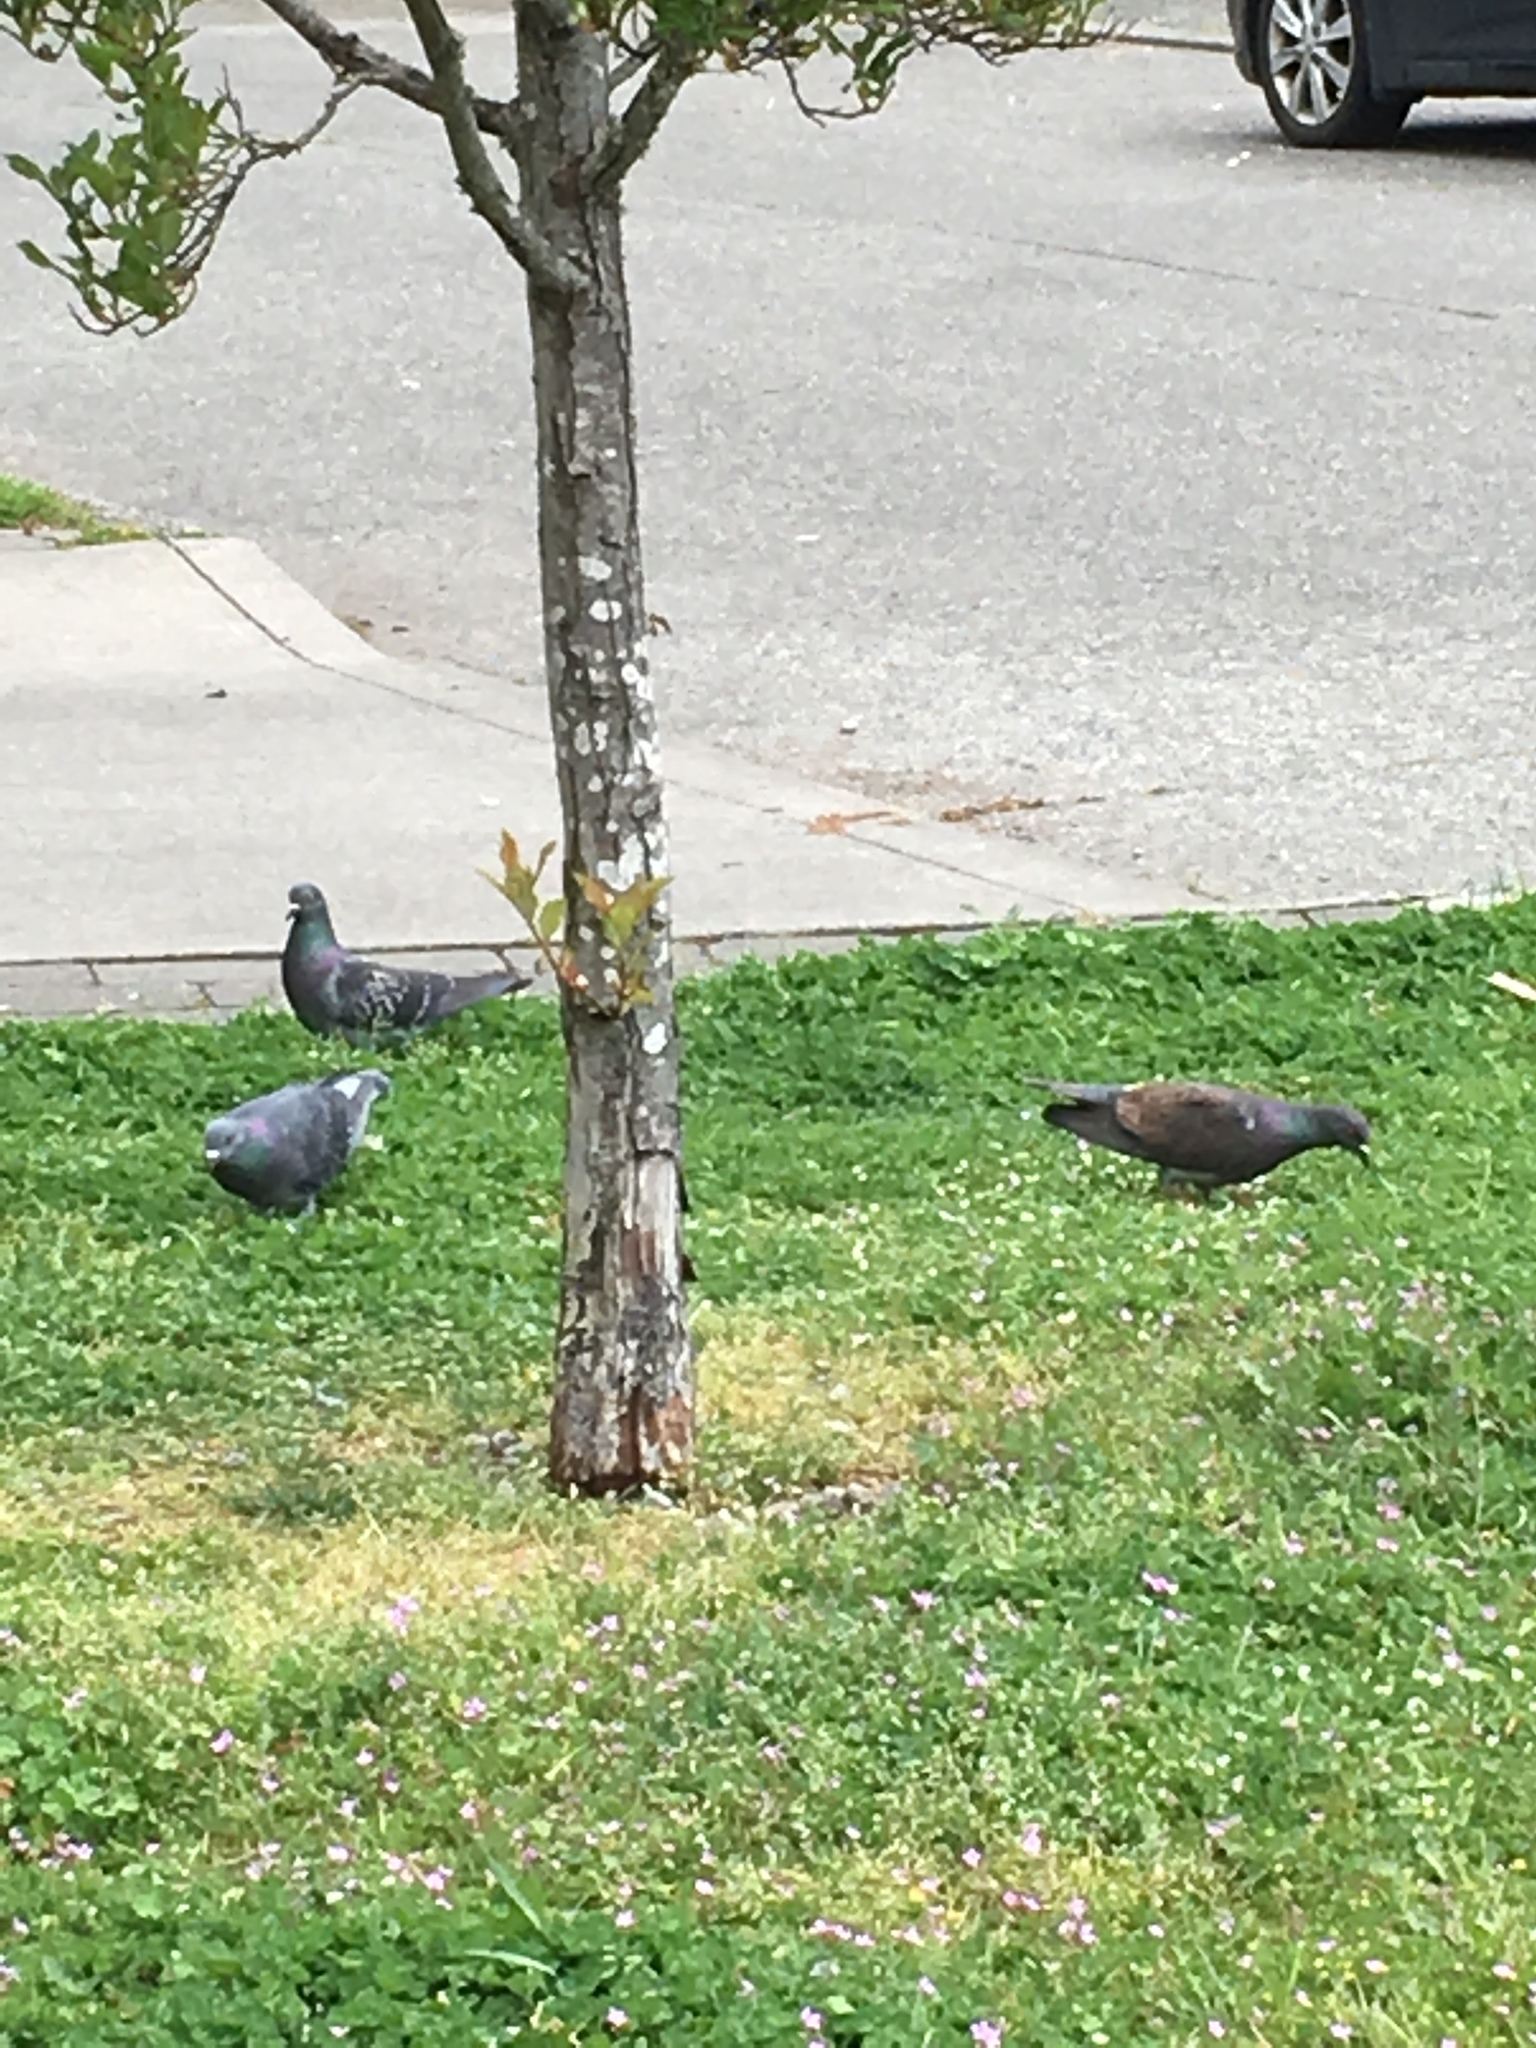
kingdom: Animalia
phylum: Chordata
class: Aves
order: Columbiformes
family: Columbidae
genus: Columba
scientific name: Columba livia
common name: Rock pigeon
